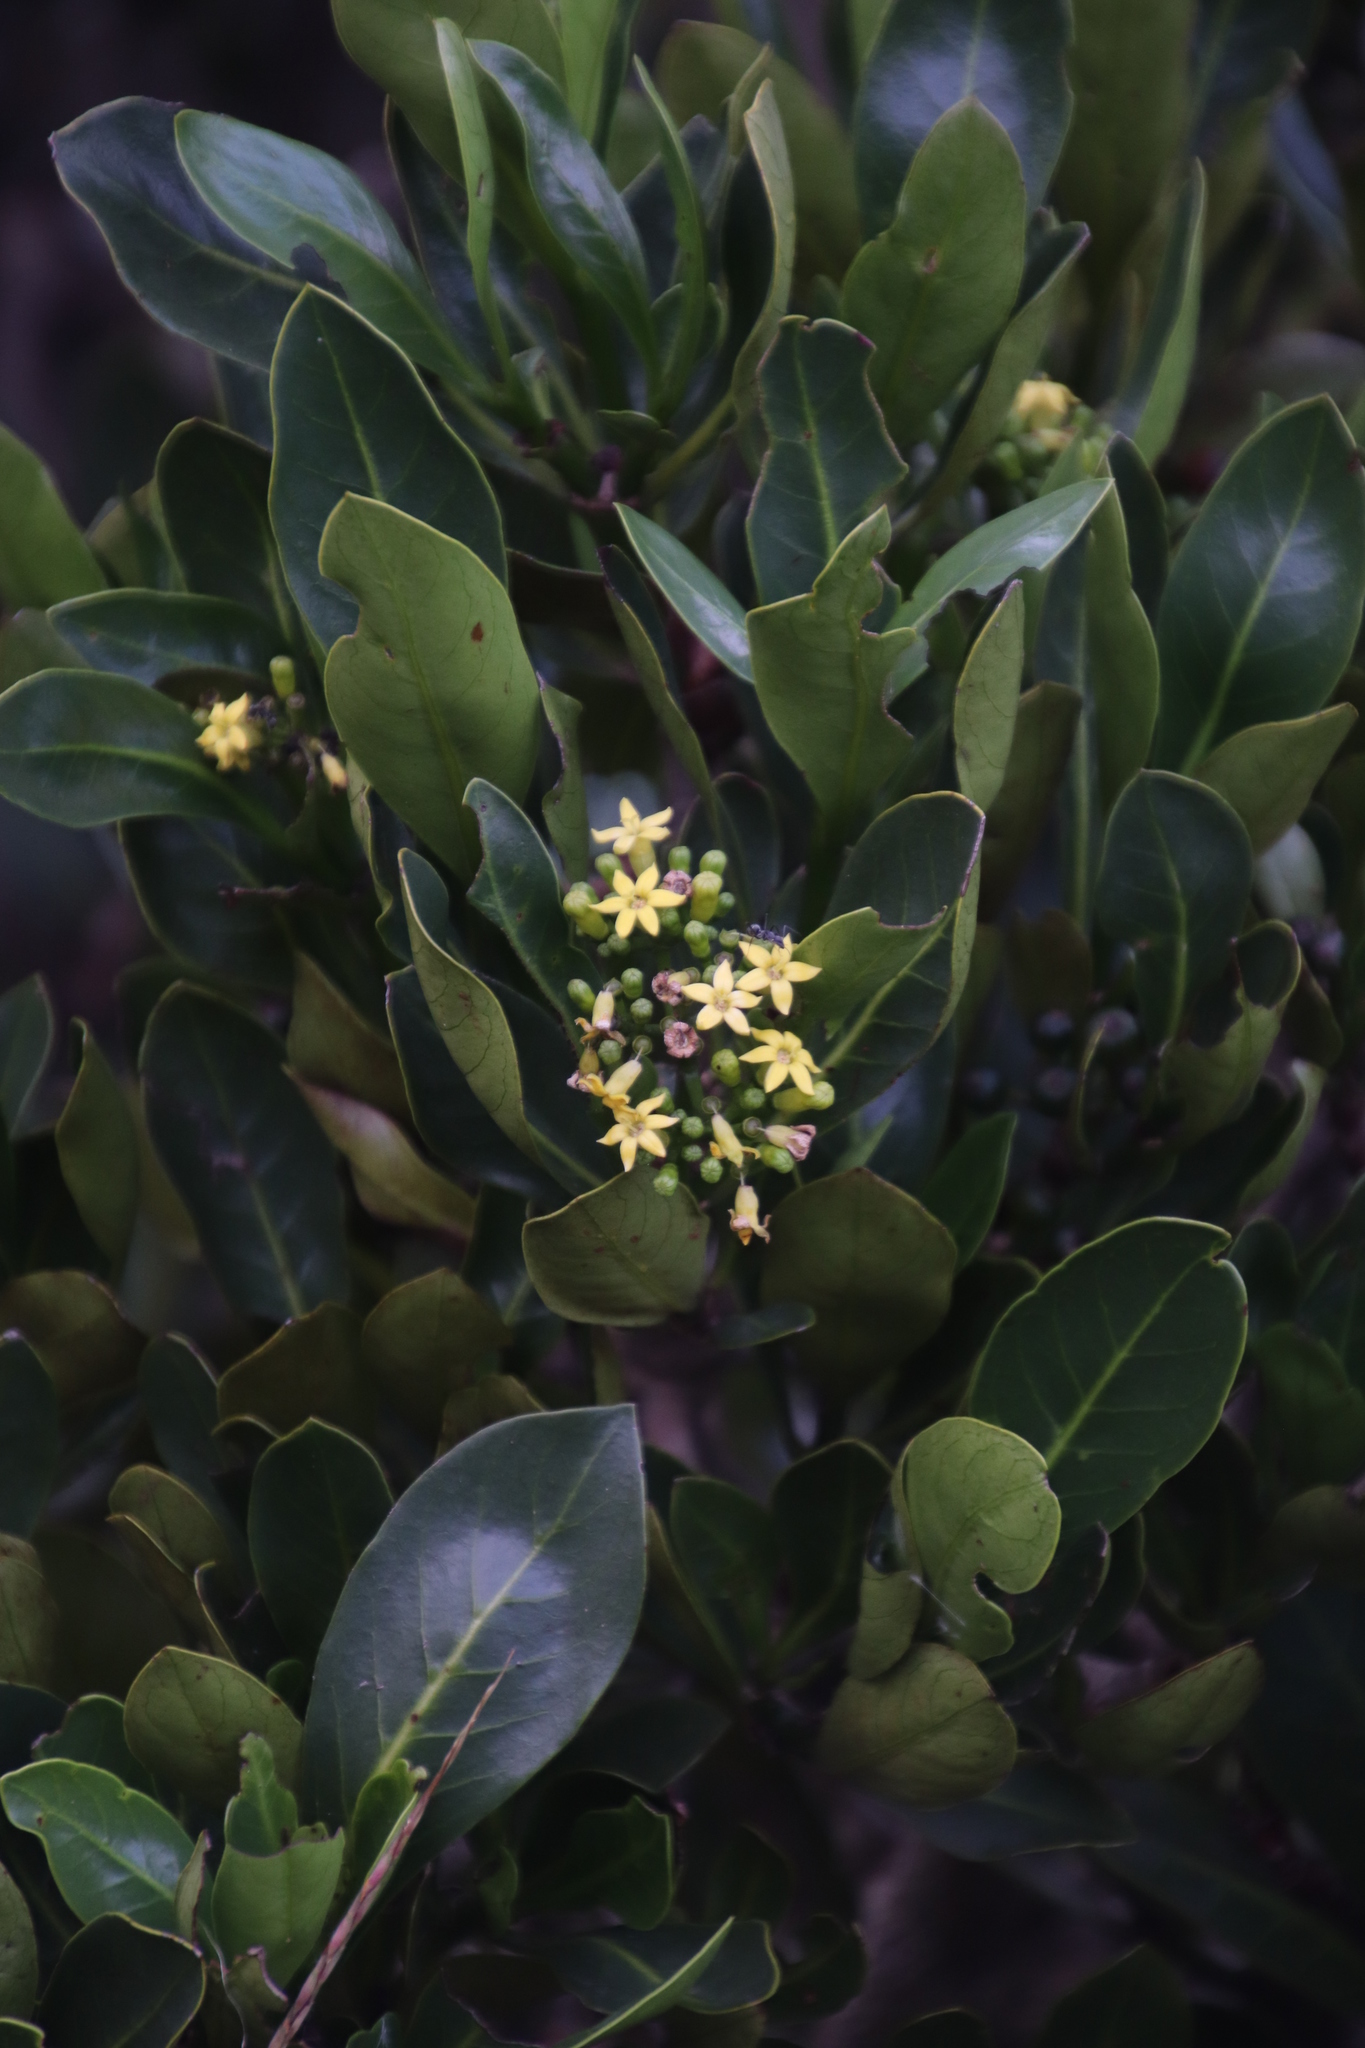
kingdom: Plantae
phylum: Tracheophyta
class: Magnoliopsida
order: Gentianales
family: Rubiaceae
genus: Psychotria
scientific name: Psychotria
